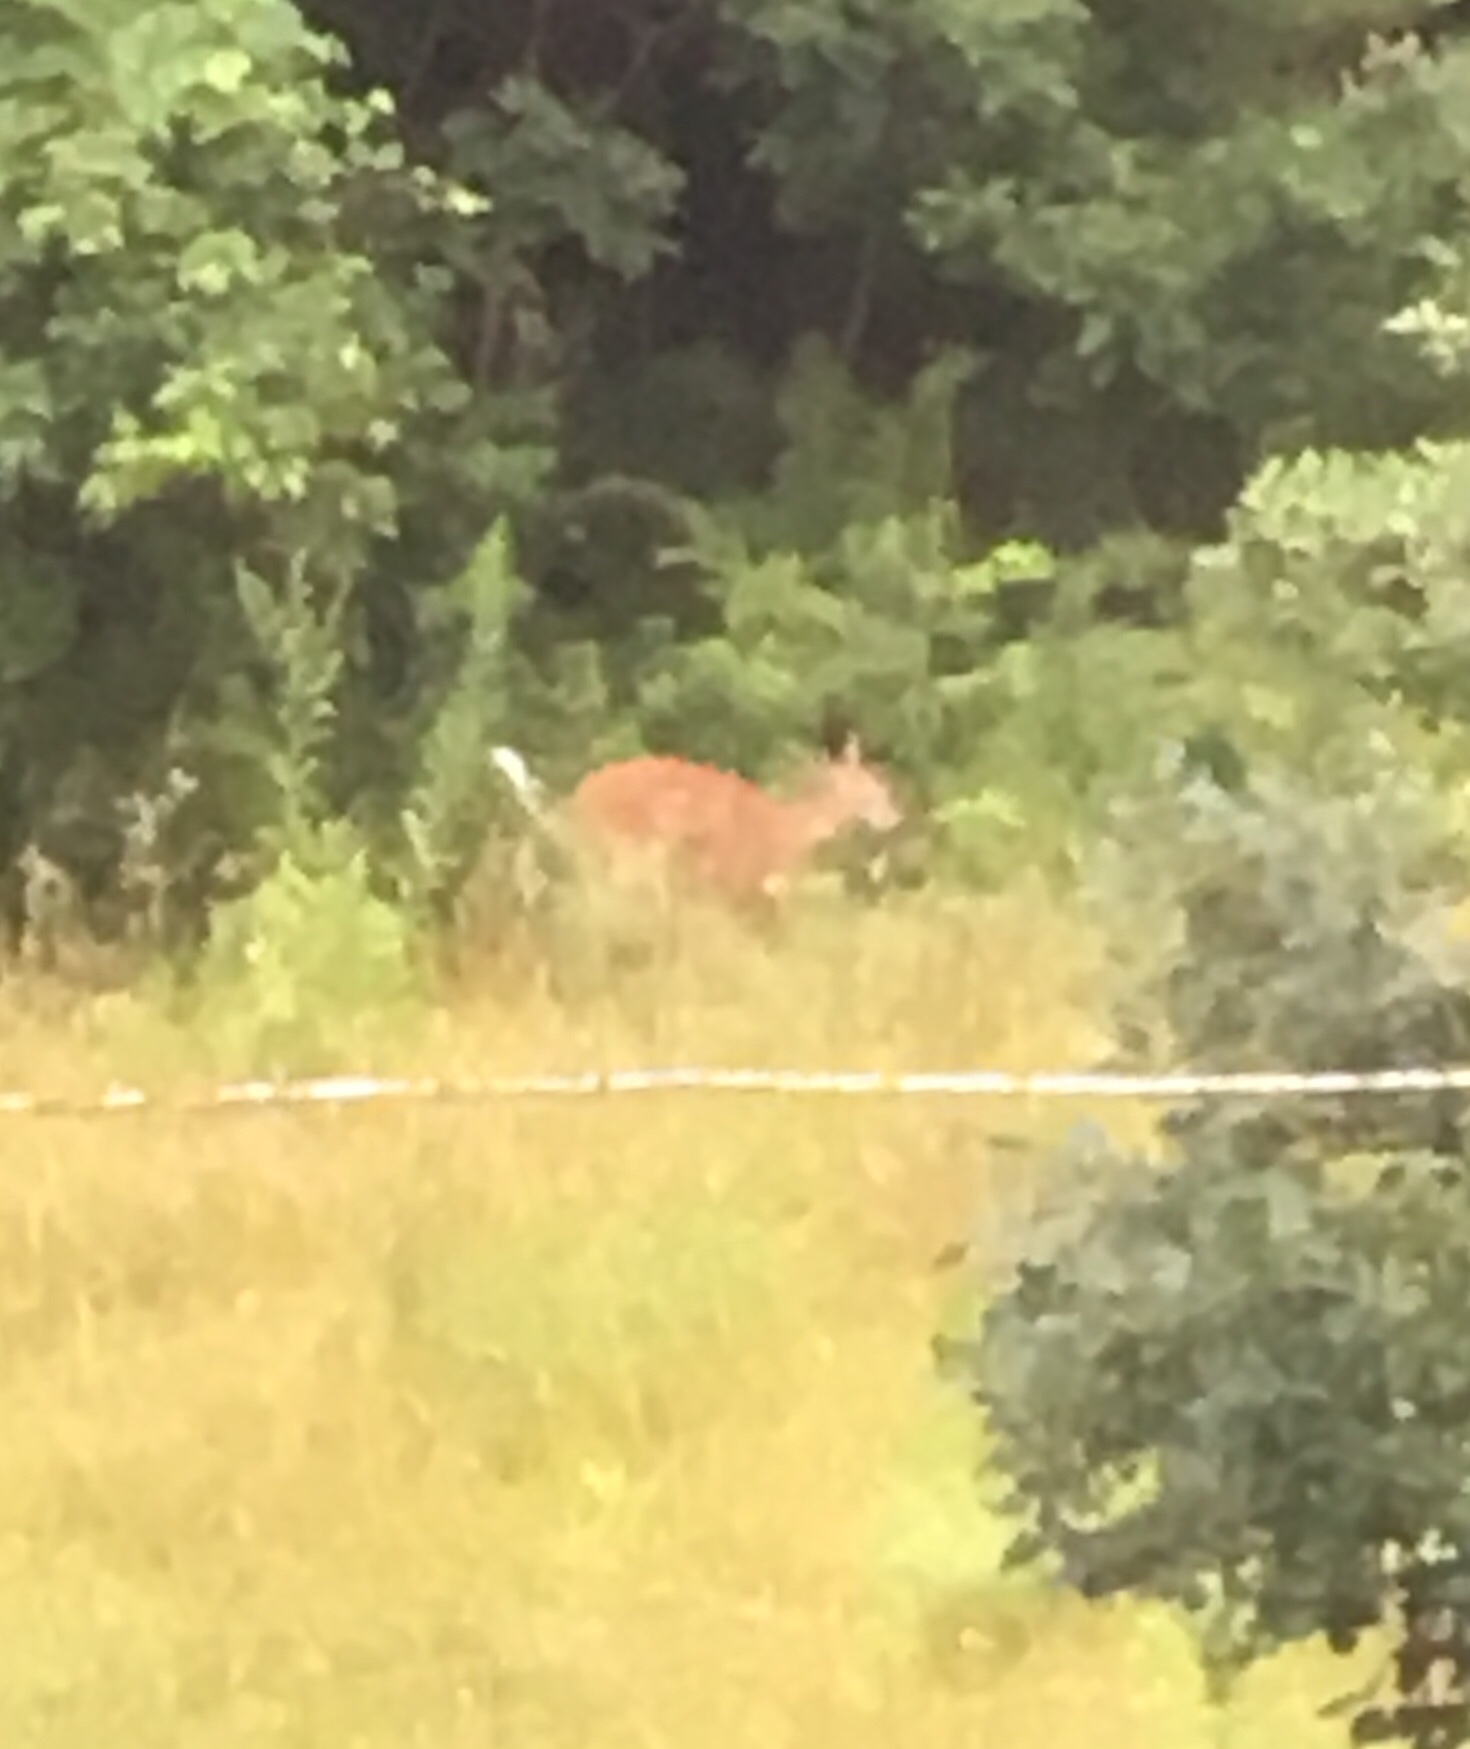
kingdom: Animalia
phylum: Chordata
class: Mammalia
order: Artiodactyla
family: Cervidae
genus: Odocoileus
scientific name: Odocoileus virginianus
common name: White-tailed deer
